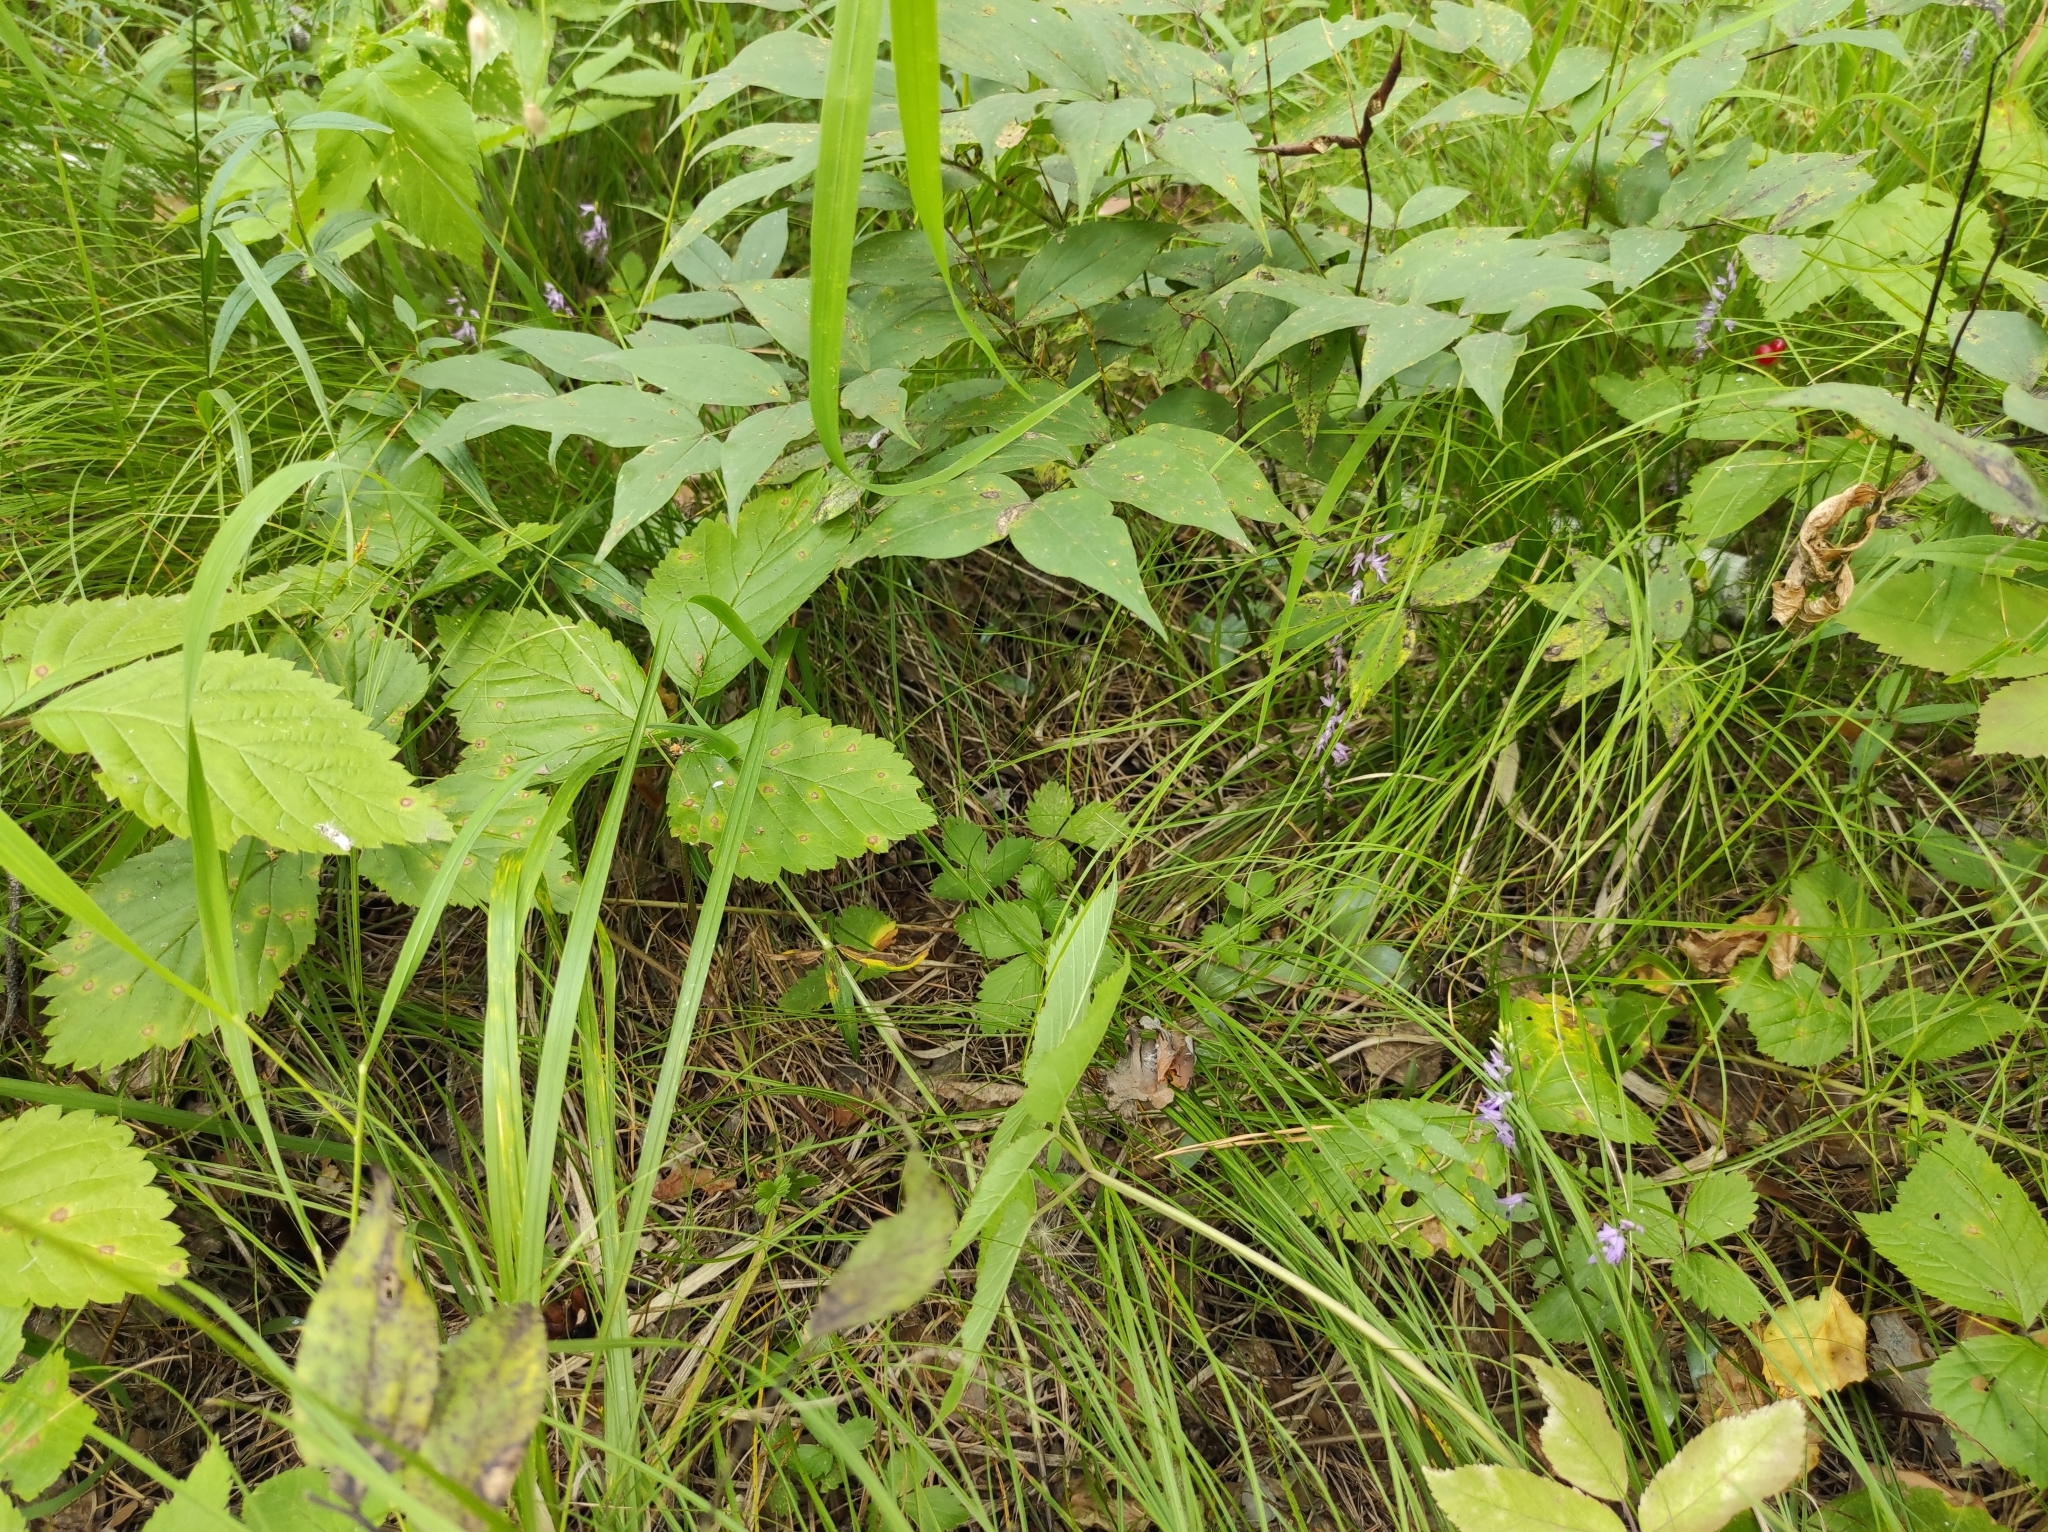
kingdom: Plantae
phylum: Tracheophyta
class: Liliopsida
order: Asparagales
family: Orchidaceae
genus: Hemipilia
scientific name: Hemipilia cucullata
